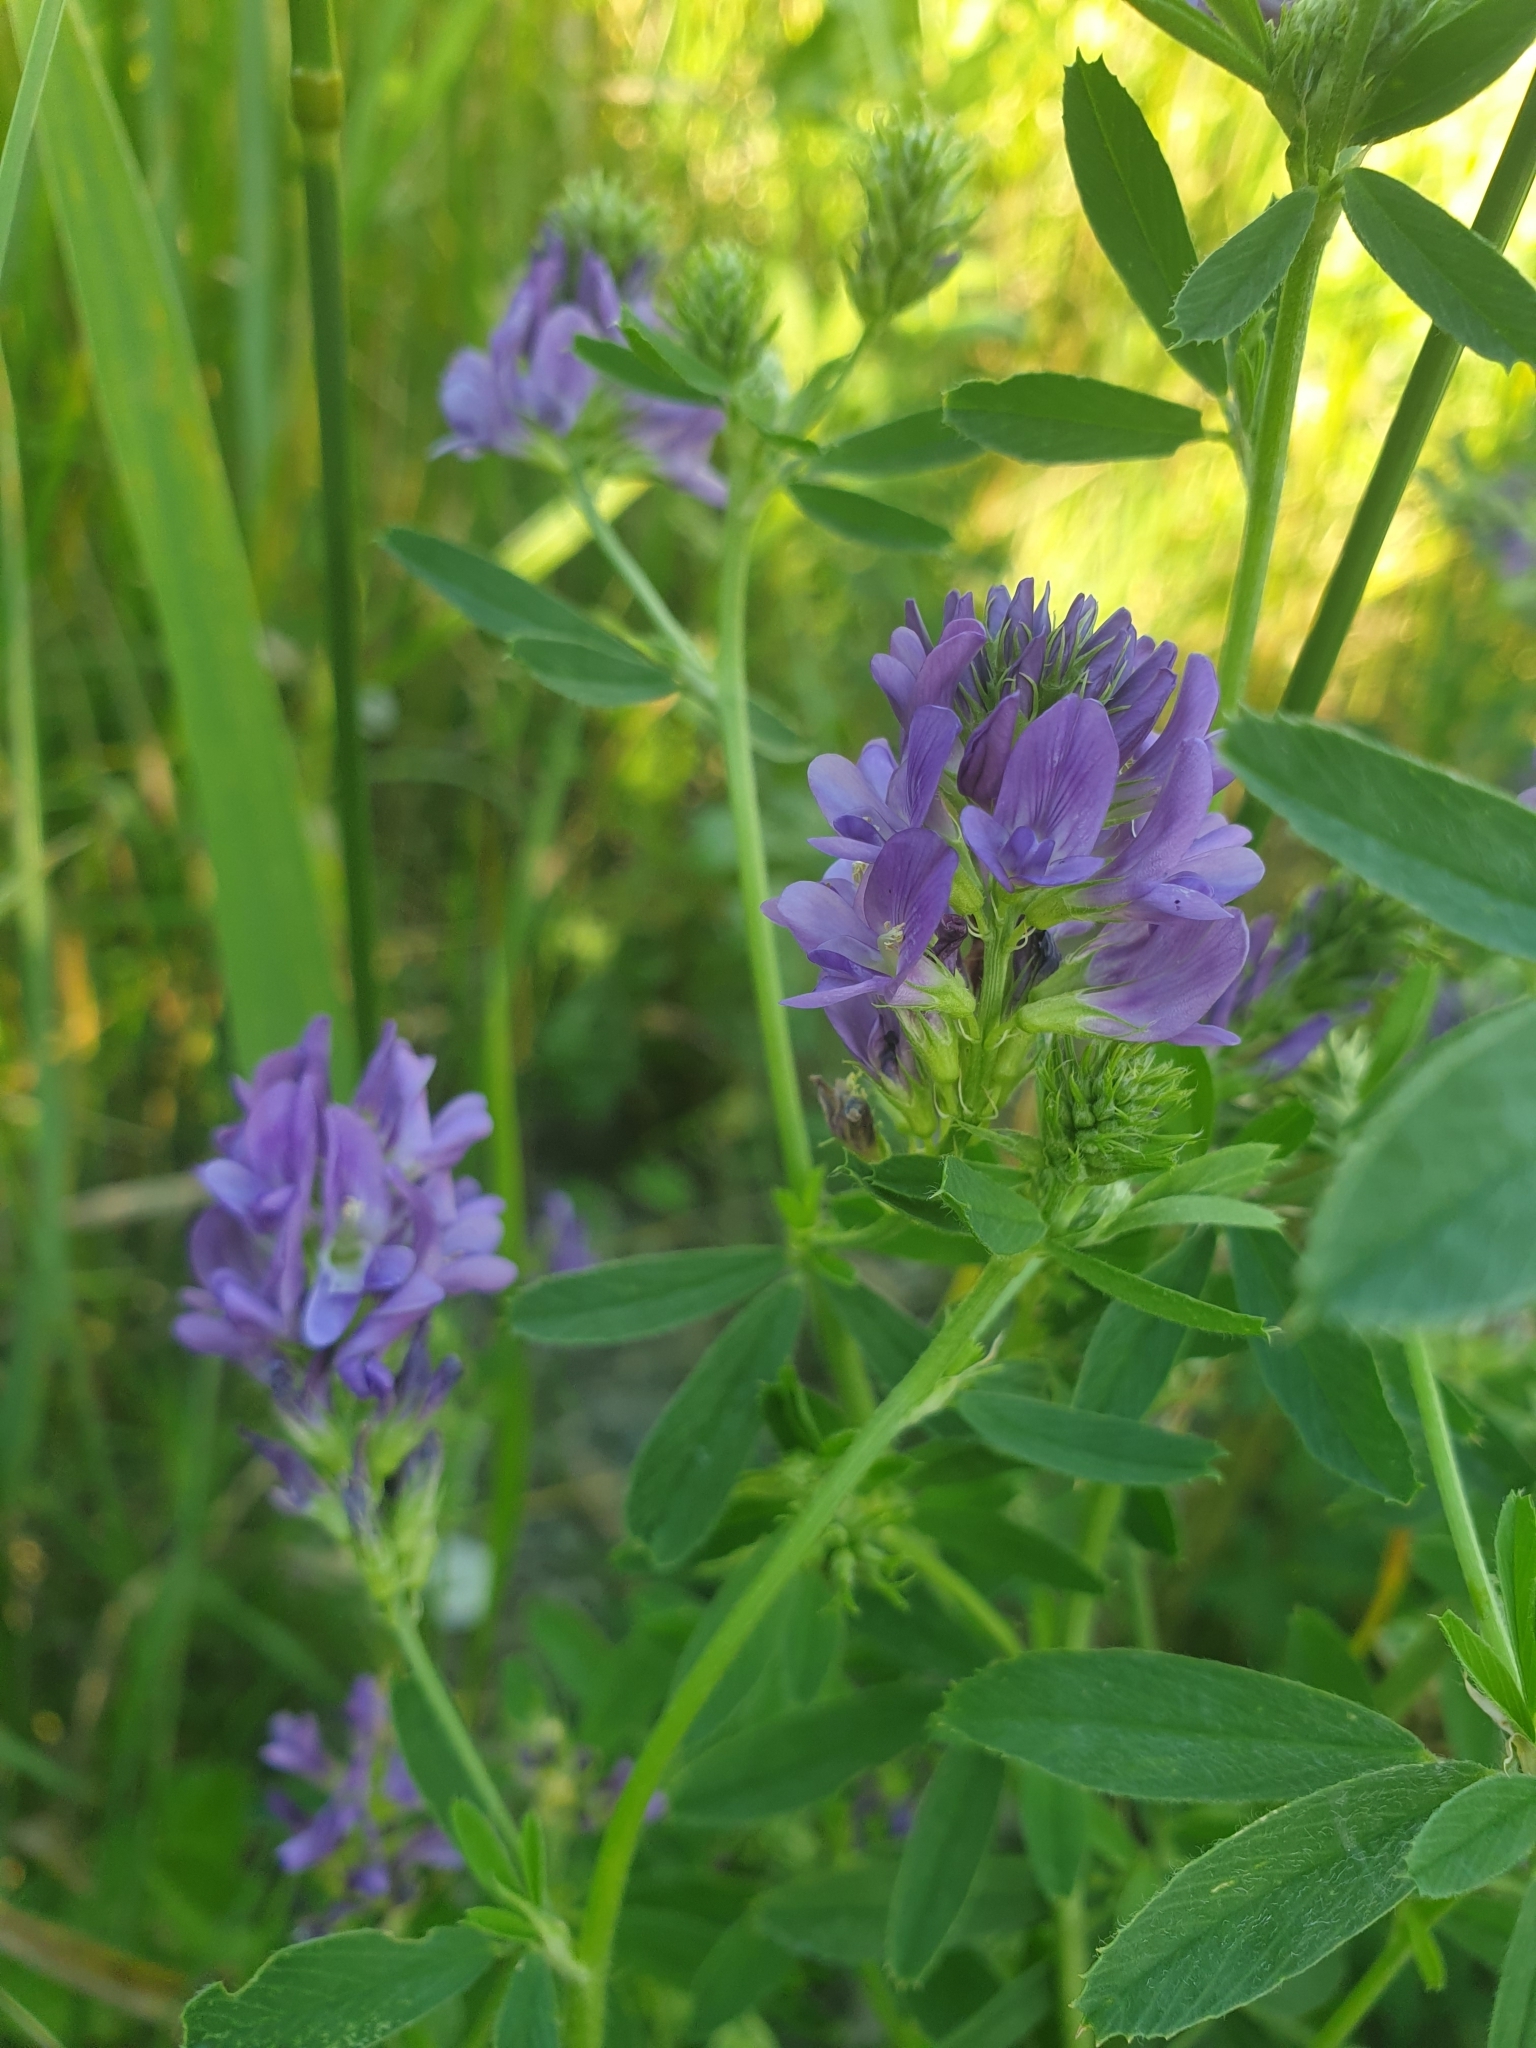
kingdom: Plantae
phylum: Tracheophyta
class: Magnoliopsida
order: Fabales
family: Fabaceae
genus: Medicago
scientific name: Medicago sativa
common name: Alfalfa
